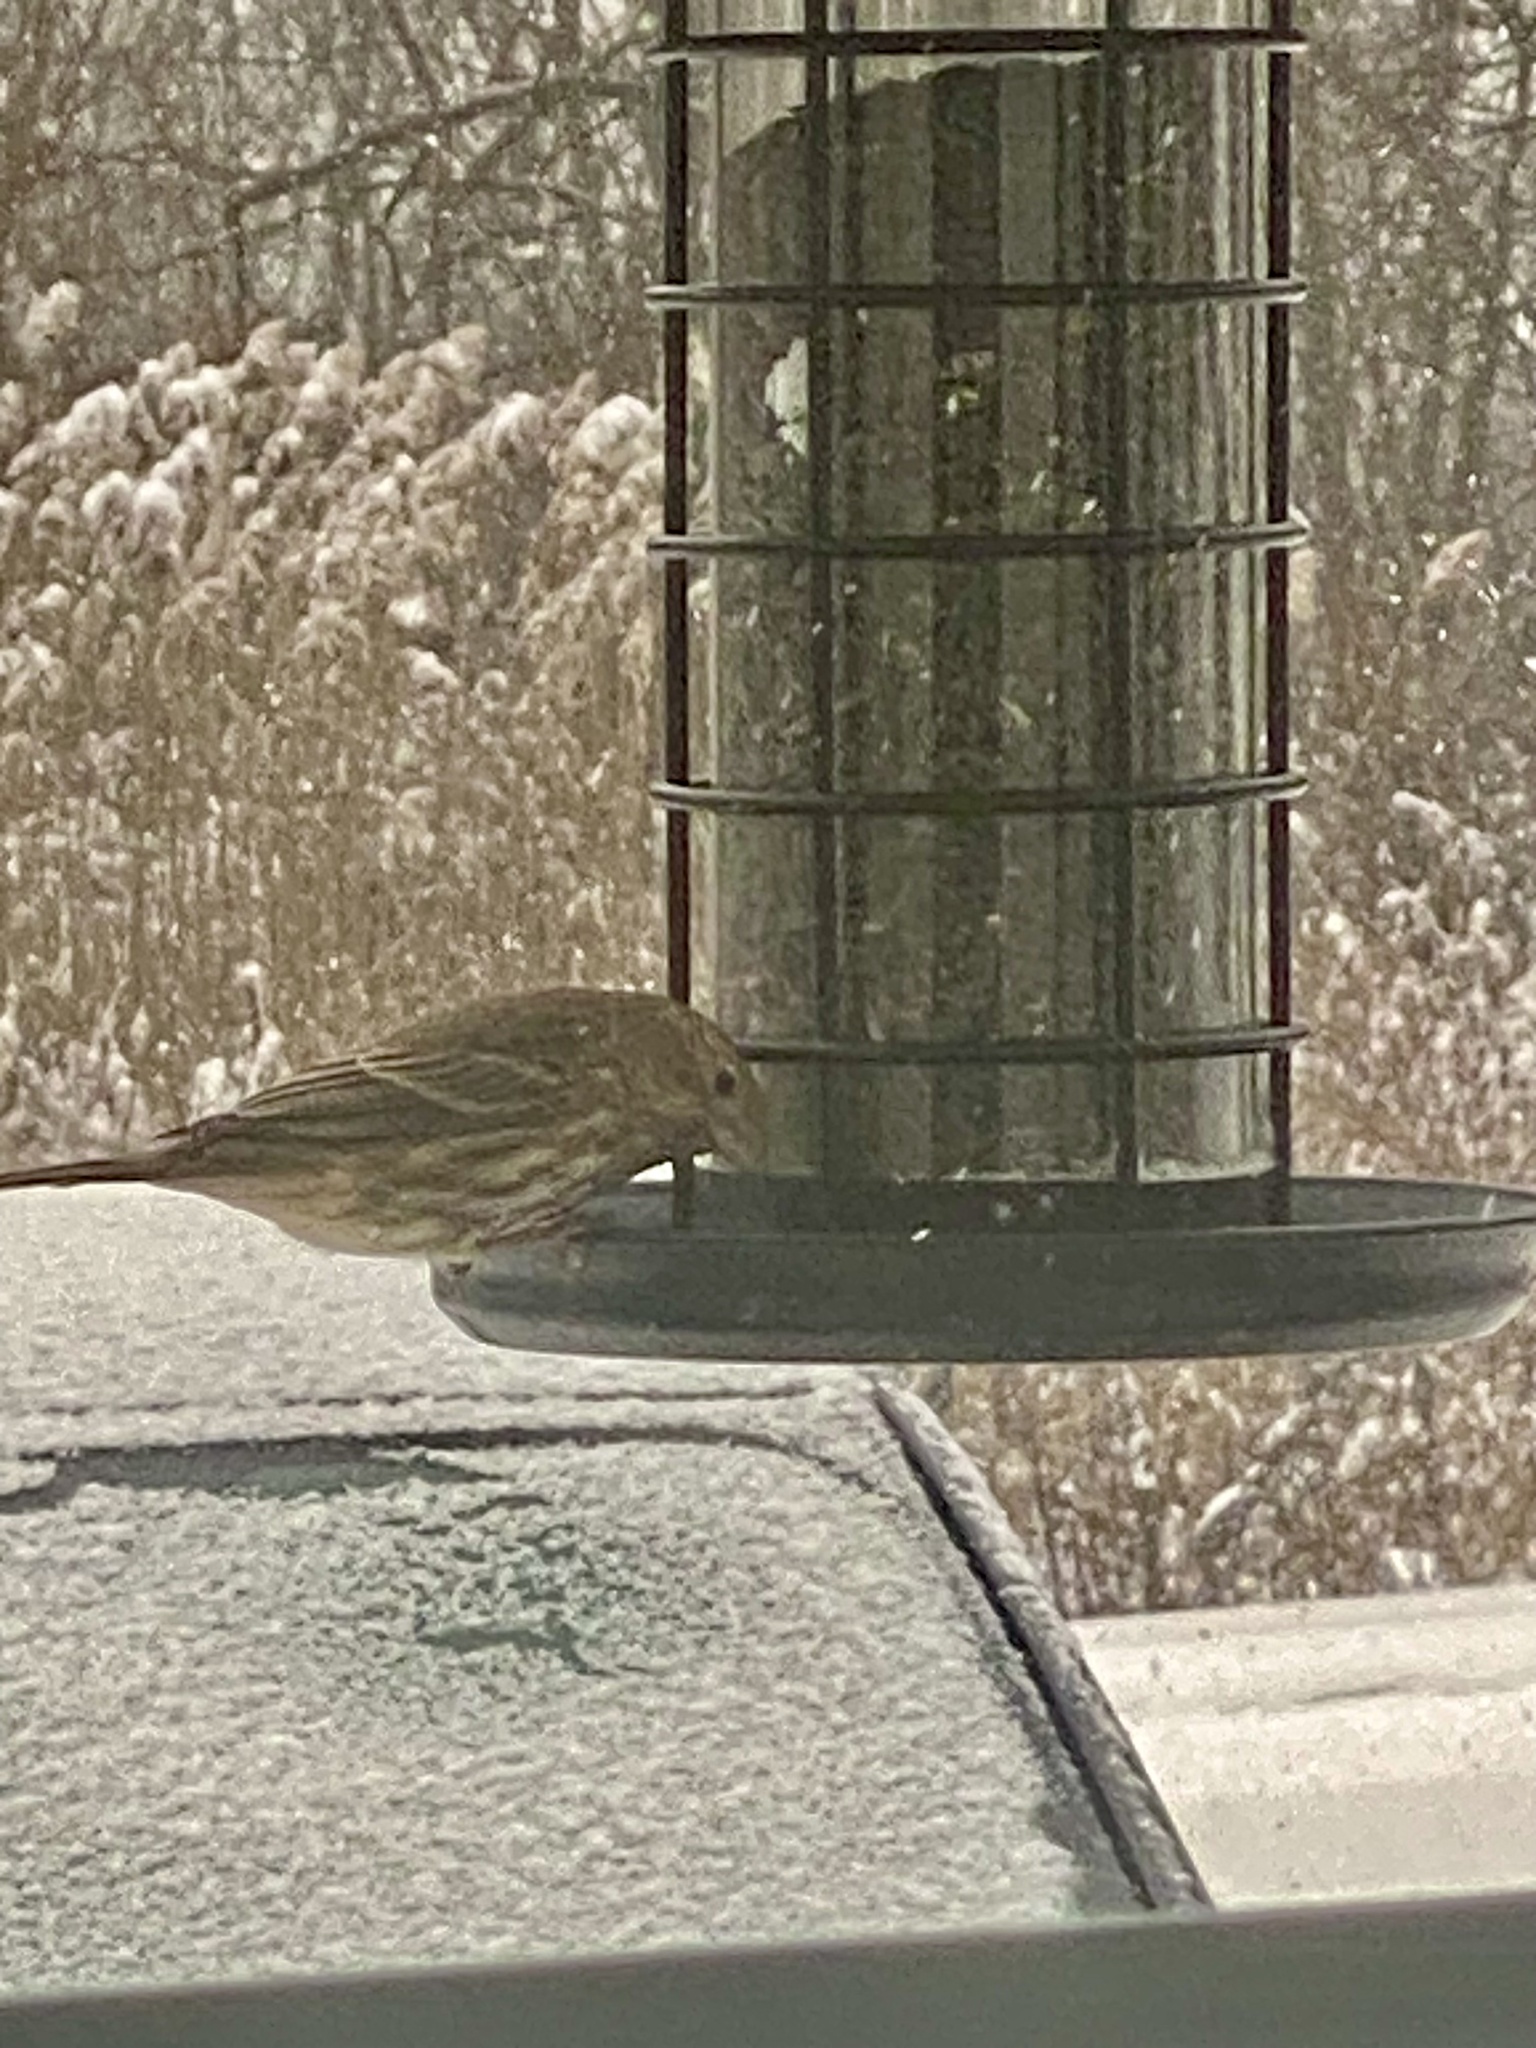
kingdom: Animalia
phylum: Chordata
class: Aves
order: Passeriformes
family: Fringillidae
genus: Haemorhous
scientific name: Haemorhous mexicanus
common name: House finch
